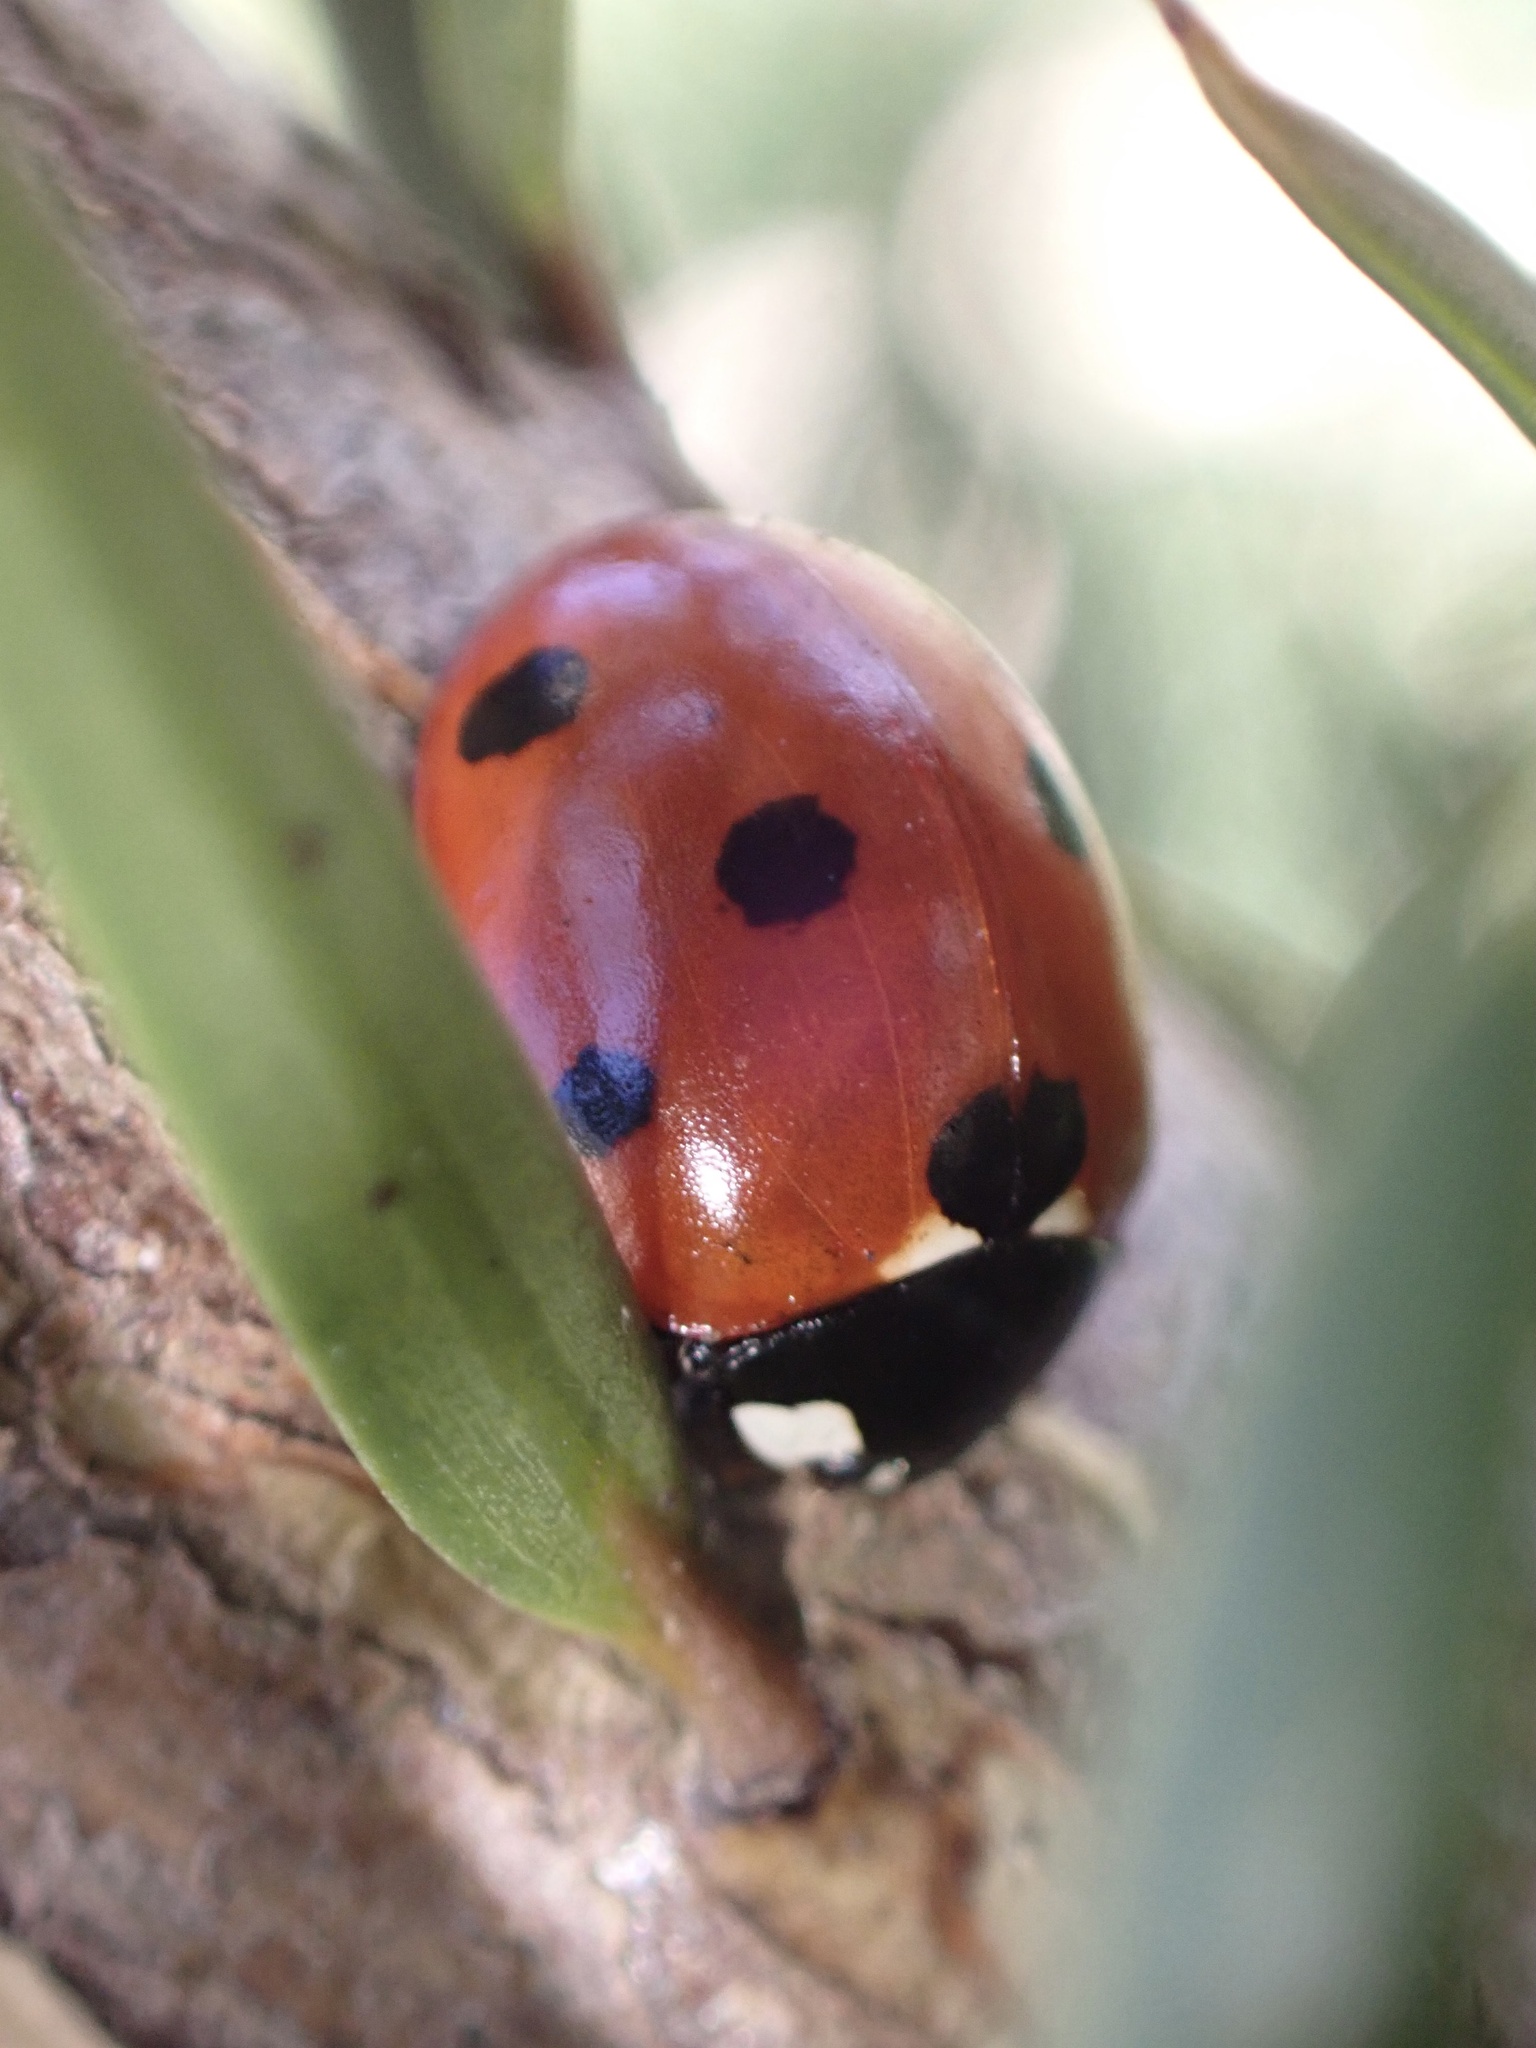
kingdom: Animalia
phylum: Arthropoda
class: Insecta
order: Coleoptera
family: Coccinellidae
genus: Coccinella
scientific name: Coccinella septempunctata
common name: Sevenspotted lady beetle
